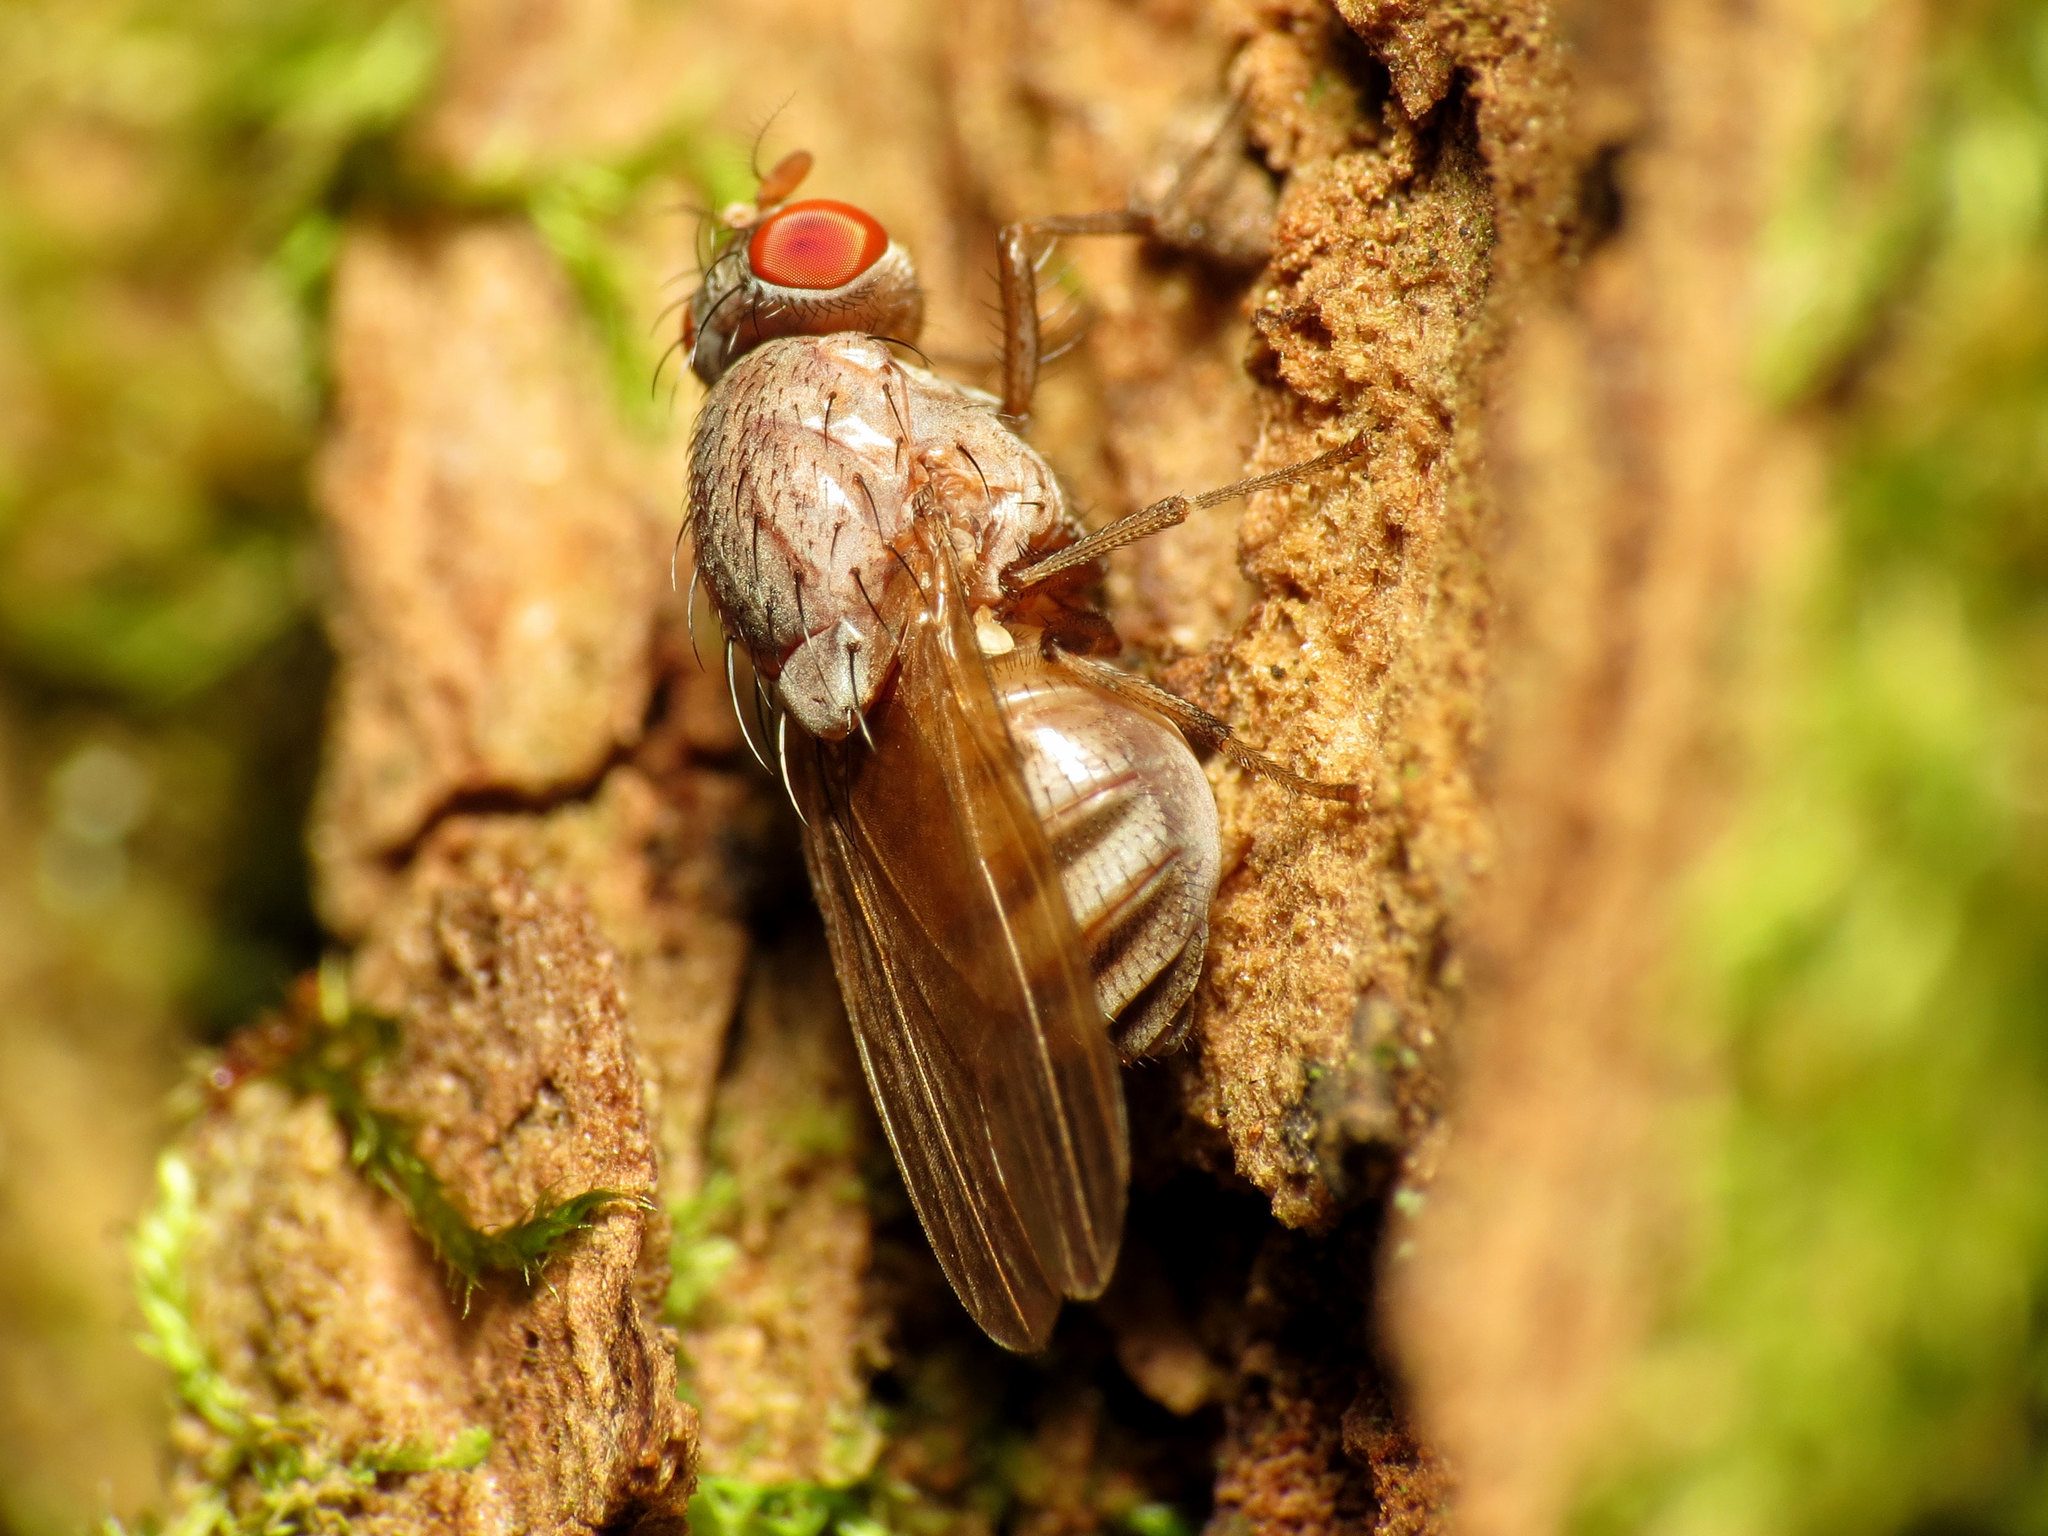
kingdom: Animalia
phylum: Arthropoda
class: Insecta
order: Diptera
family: Lauxaniidae
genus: Minettia
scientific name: Minettia magna
